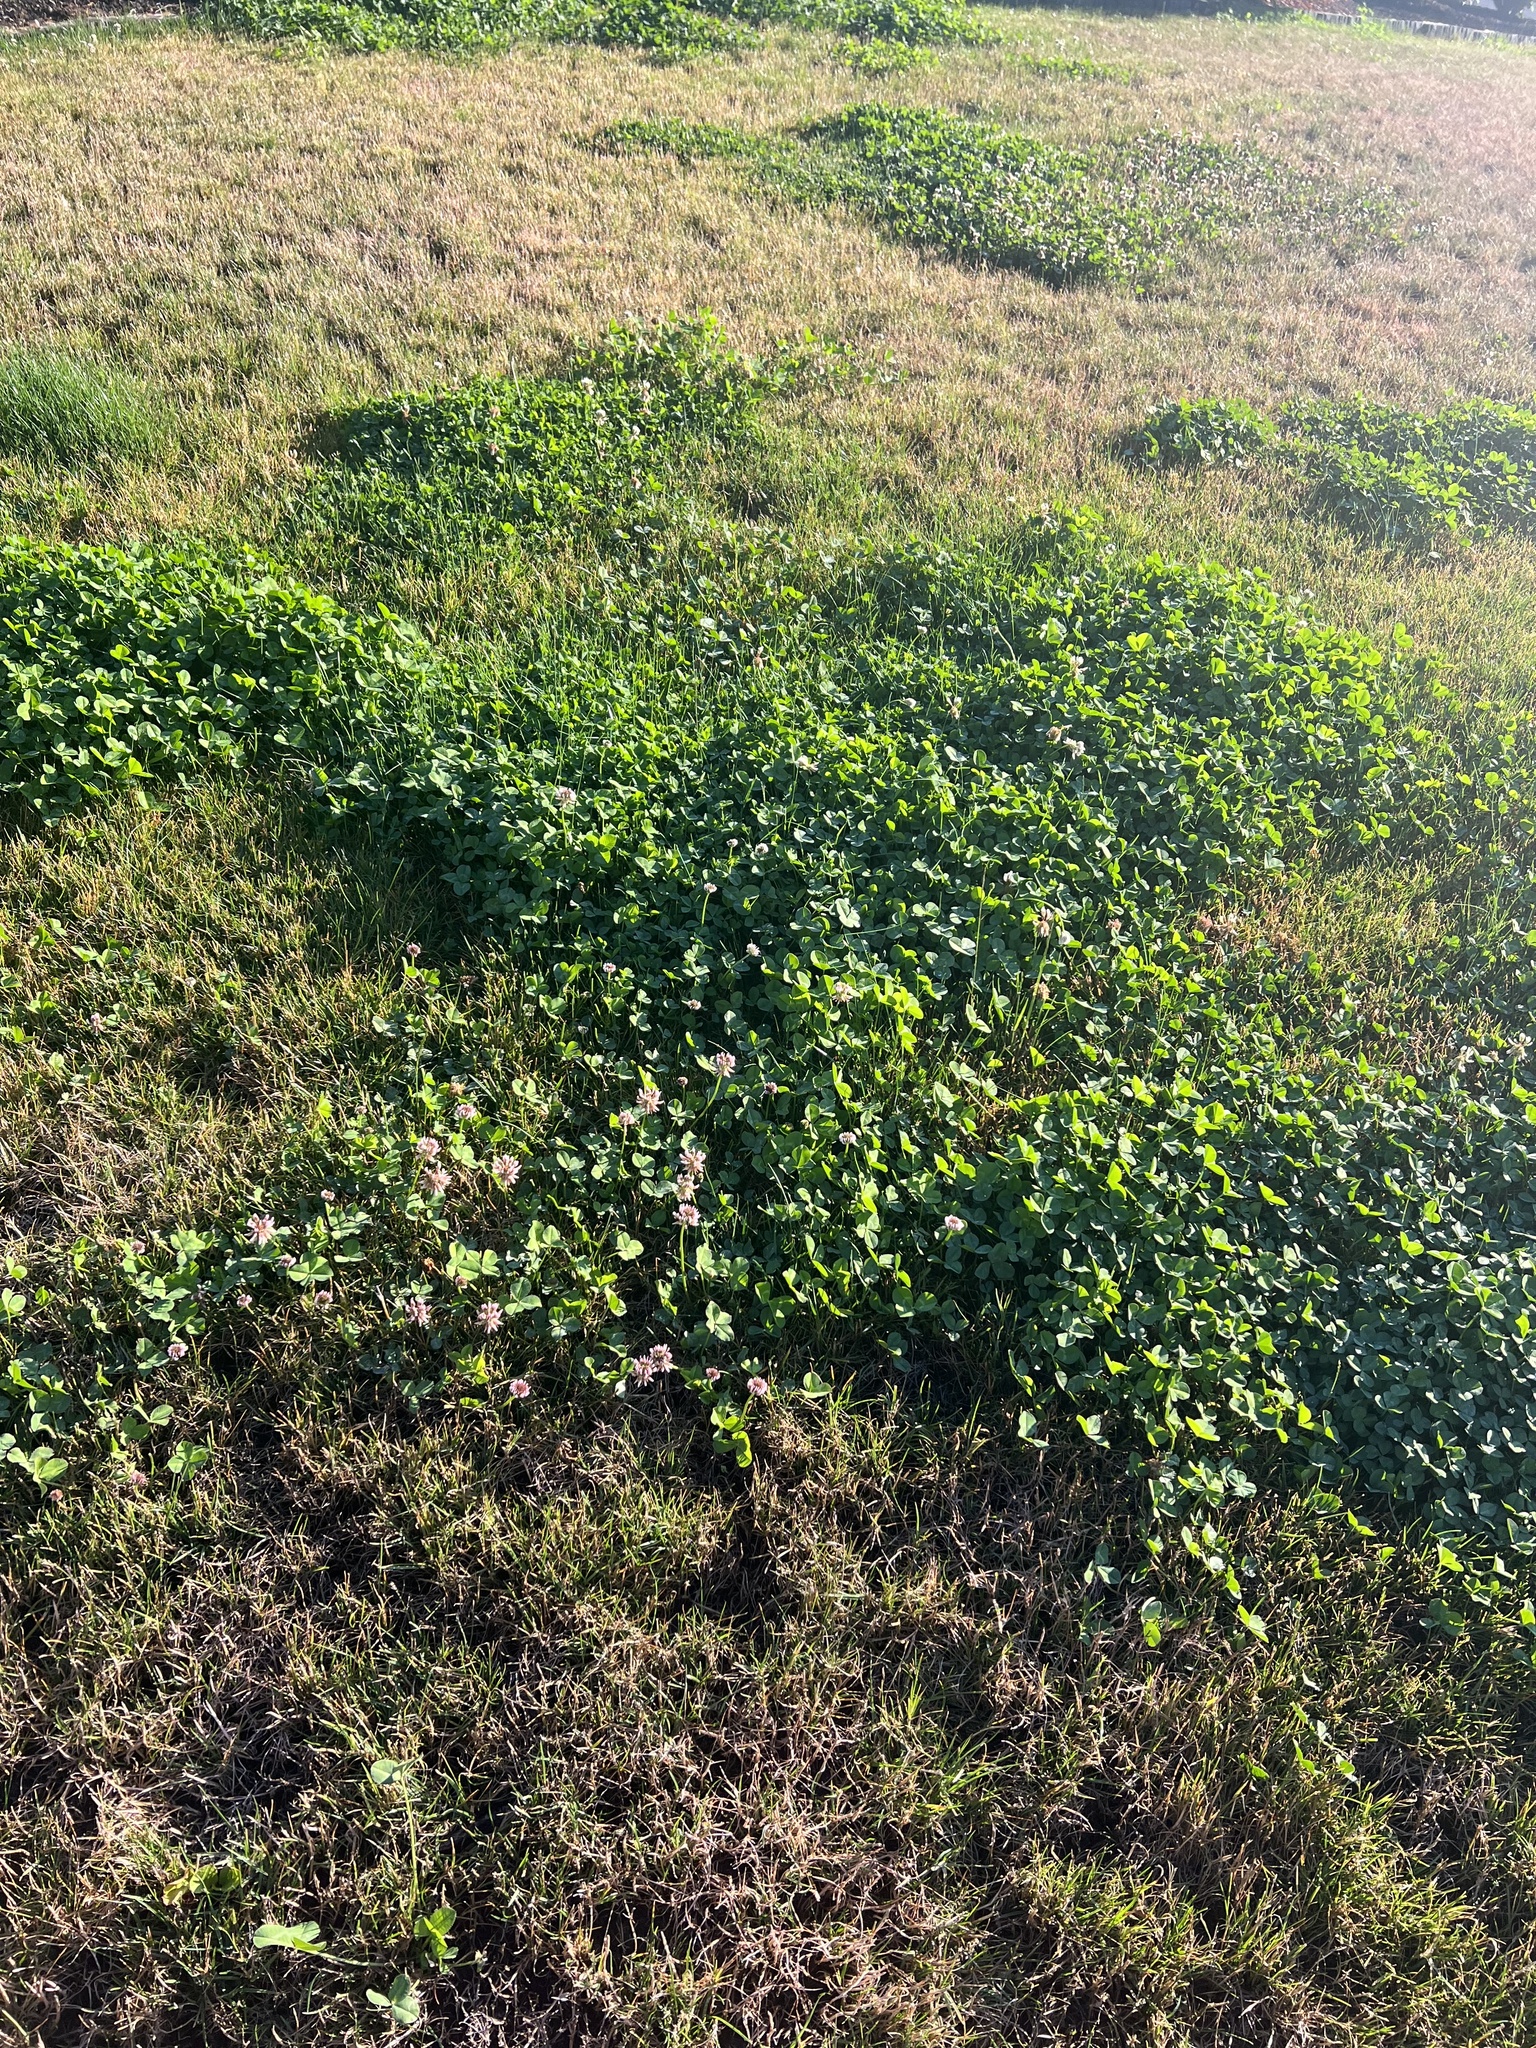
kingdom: Plantae
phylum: Tracheophyta
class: Magnoliopsida
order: Fabales
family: Fabaceae
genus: Trifolium
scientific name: Trifolium repens
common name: White clover
